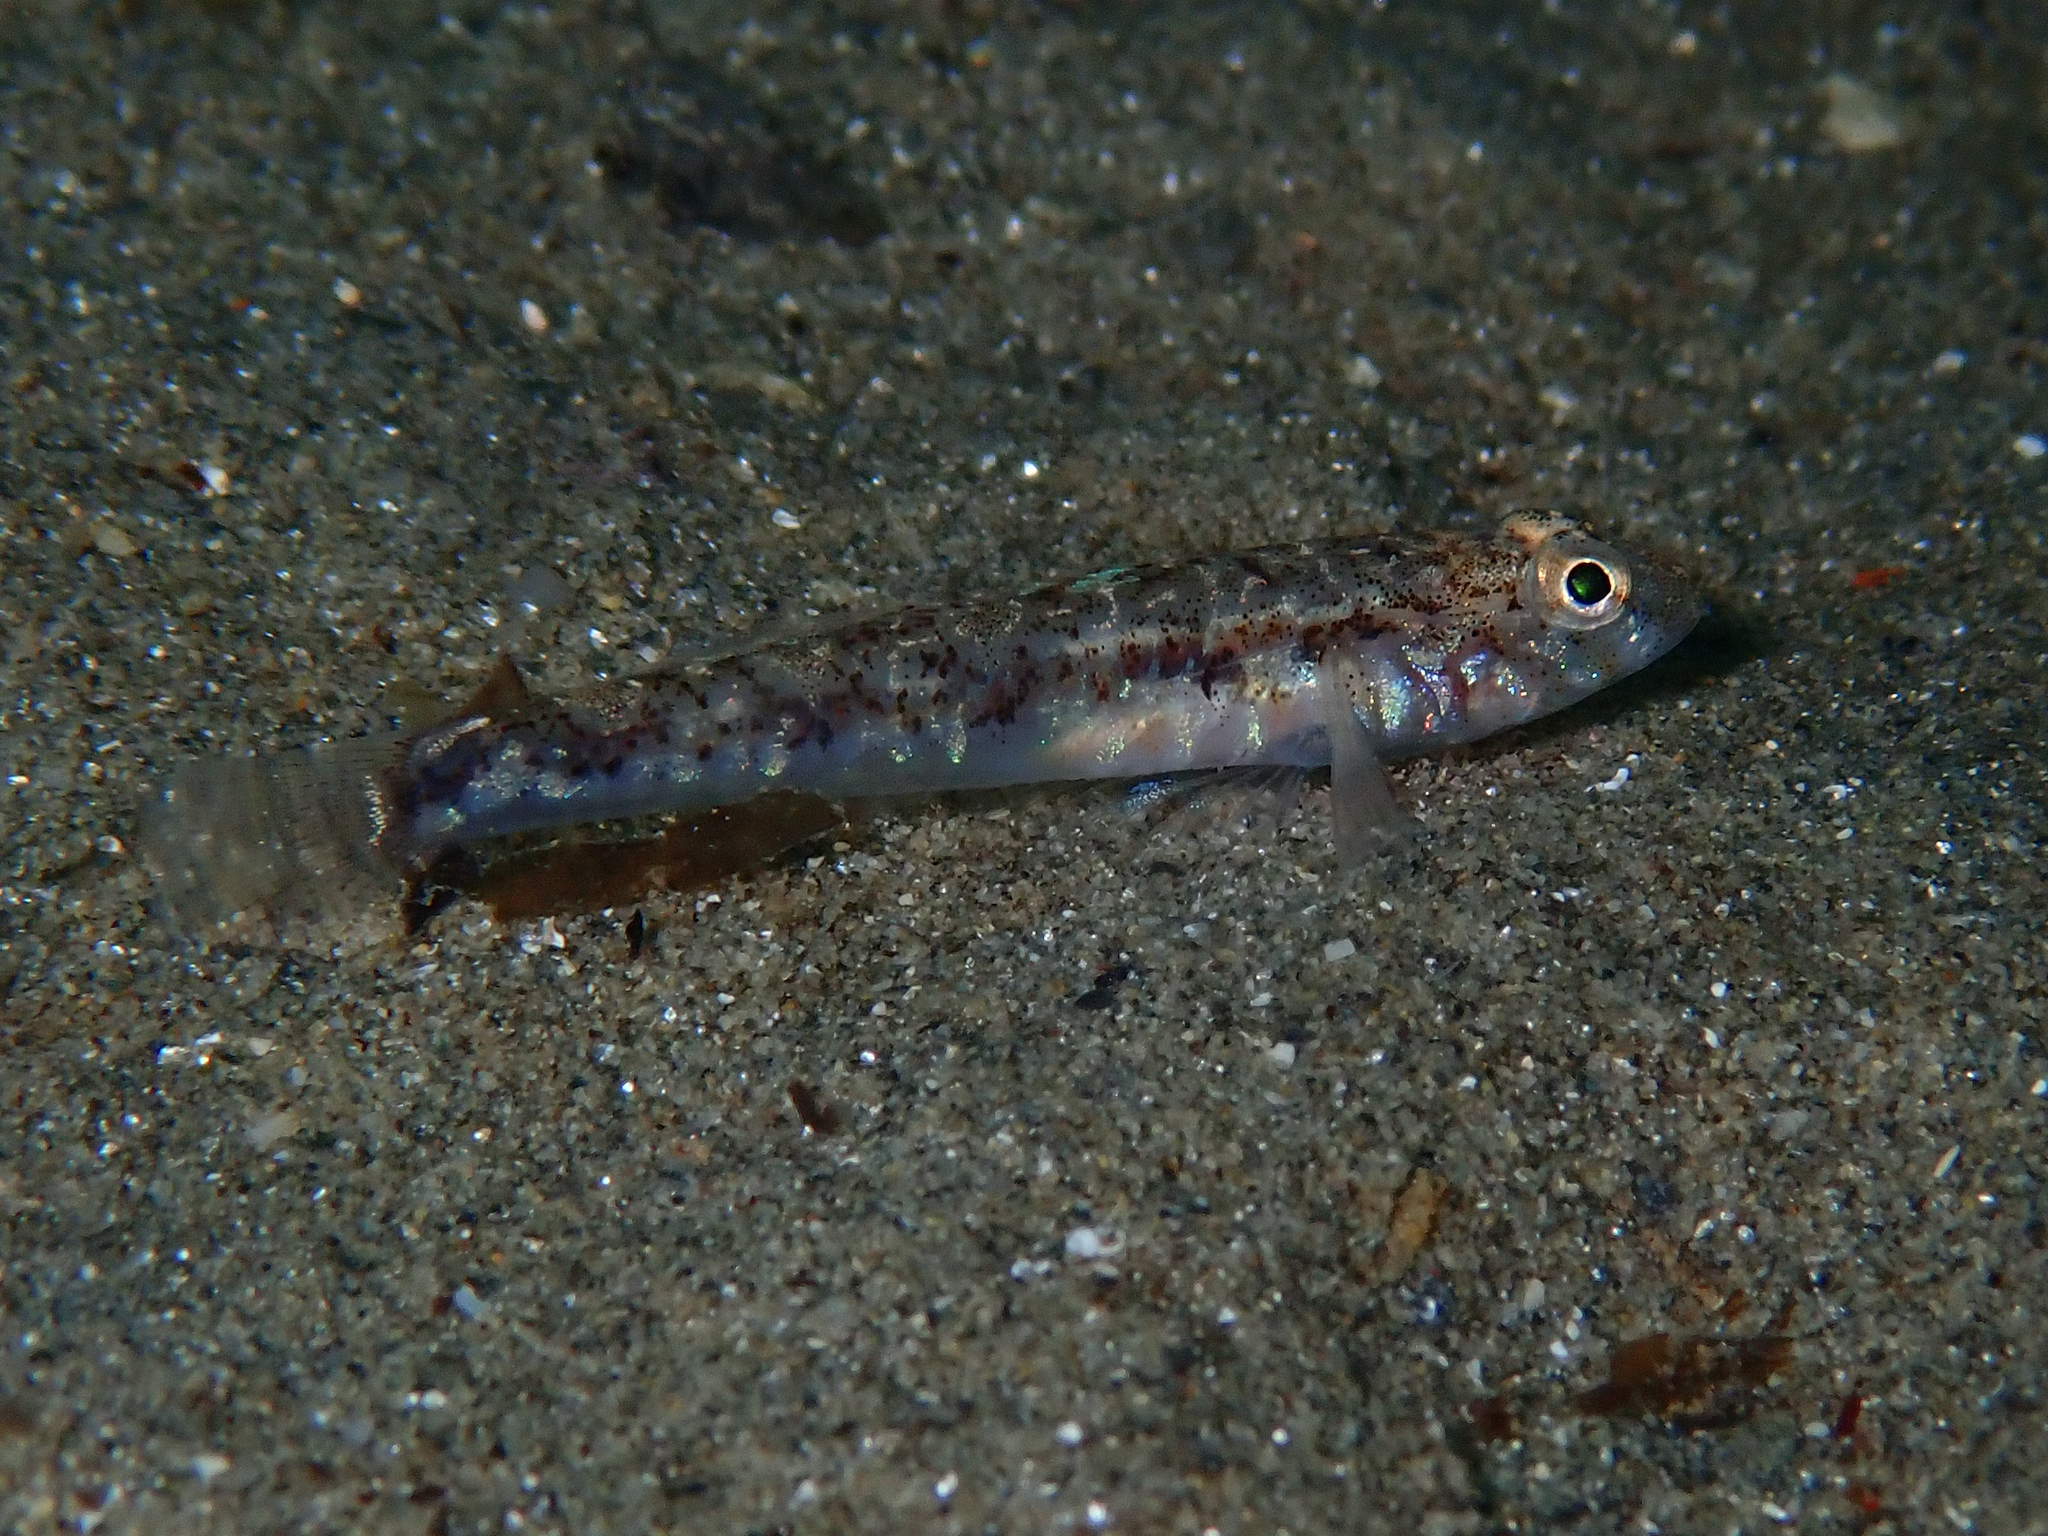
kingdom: Animalia
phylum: Chordata
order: Perciformes
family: Gobiidae
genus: Pomatoschistus
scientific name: Pomatoschistus pictus
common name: Painted goby
